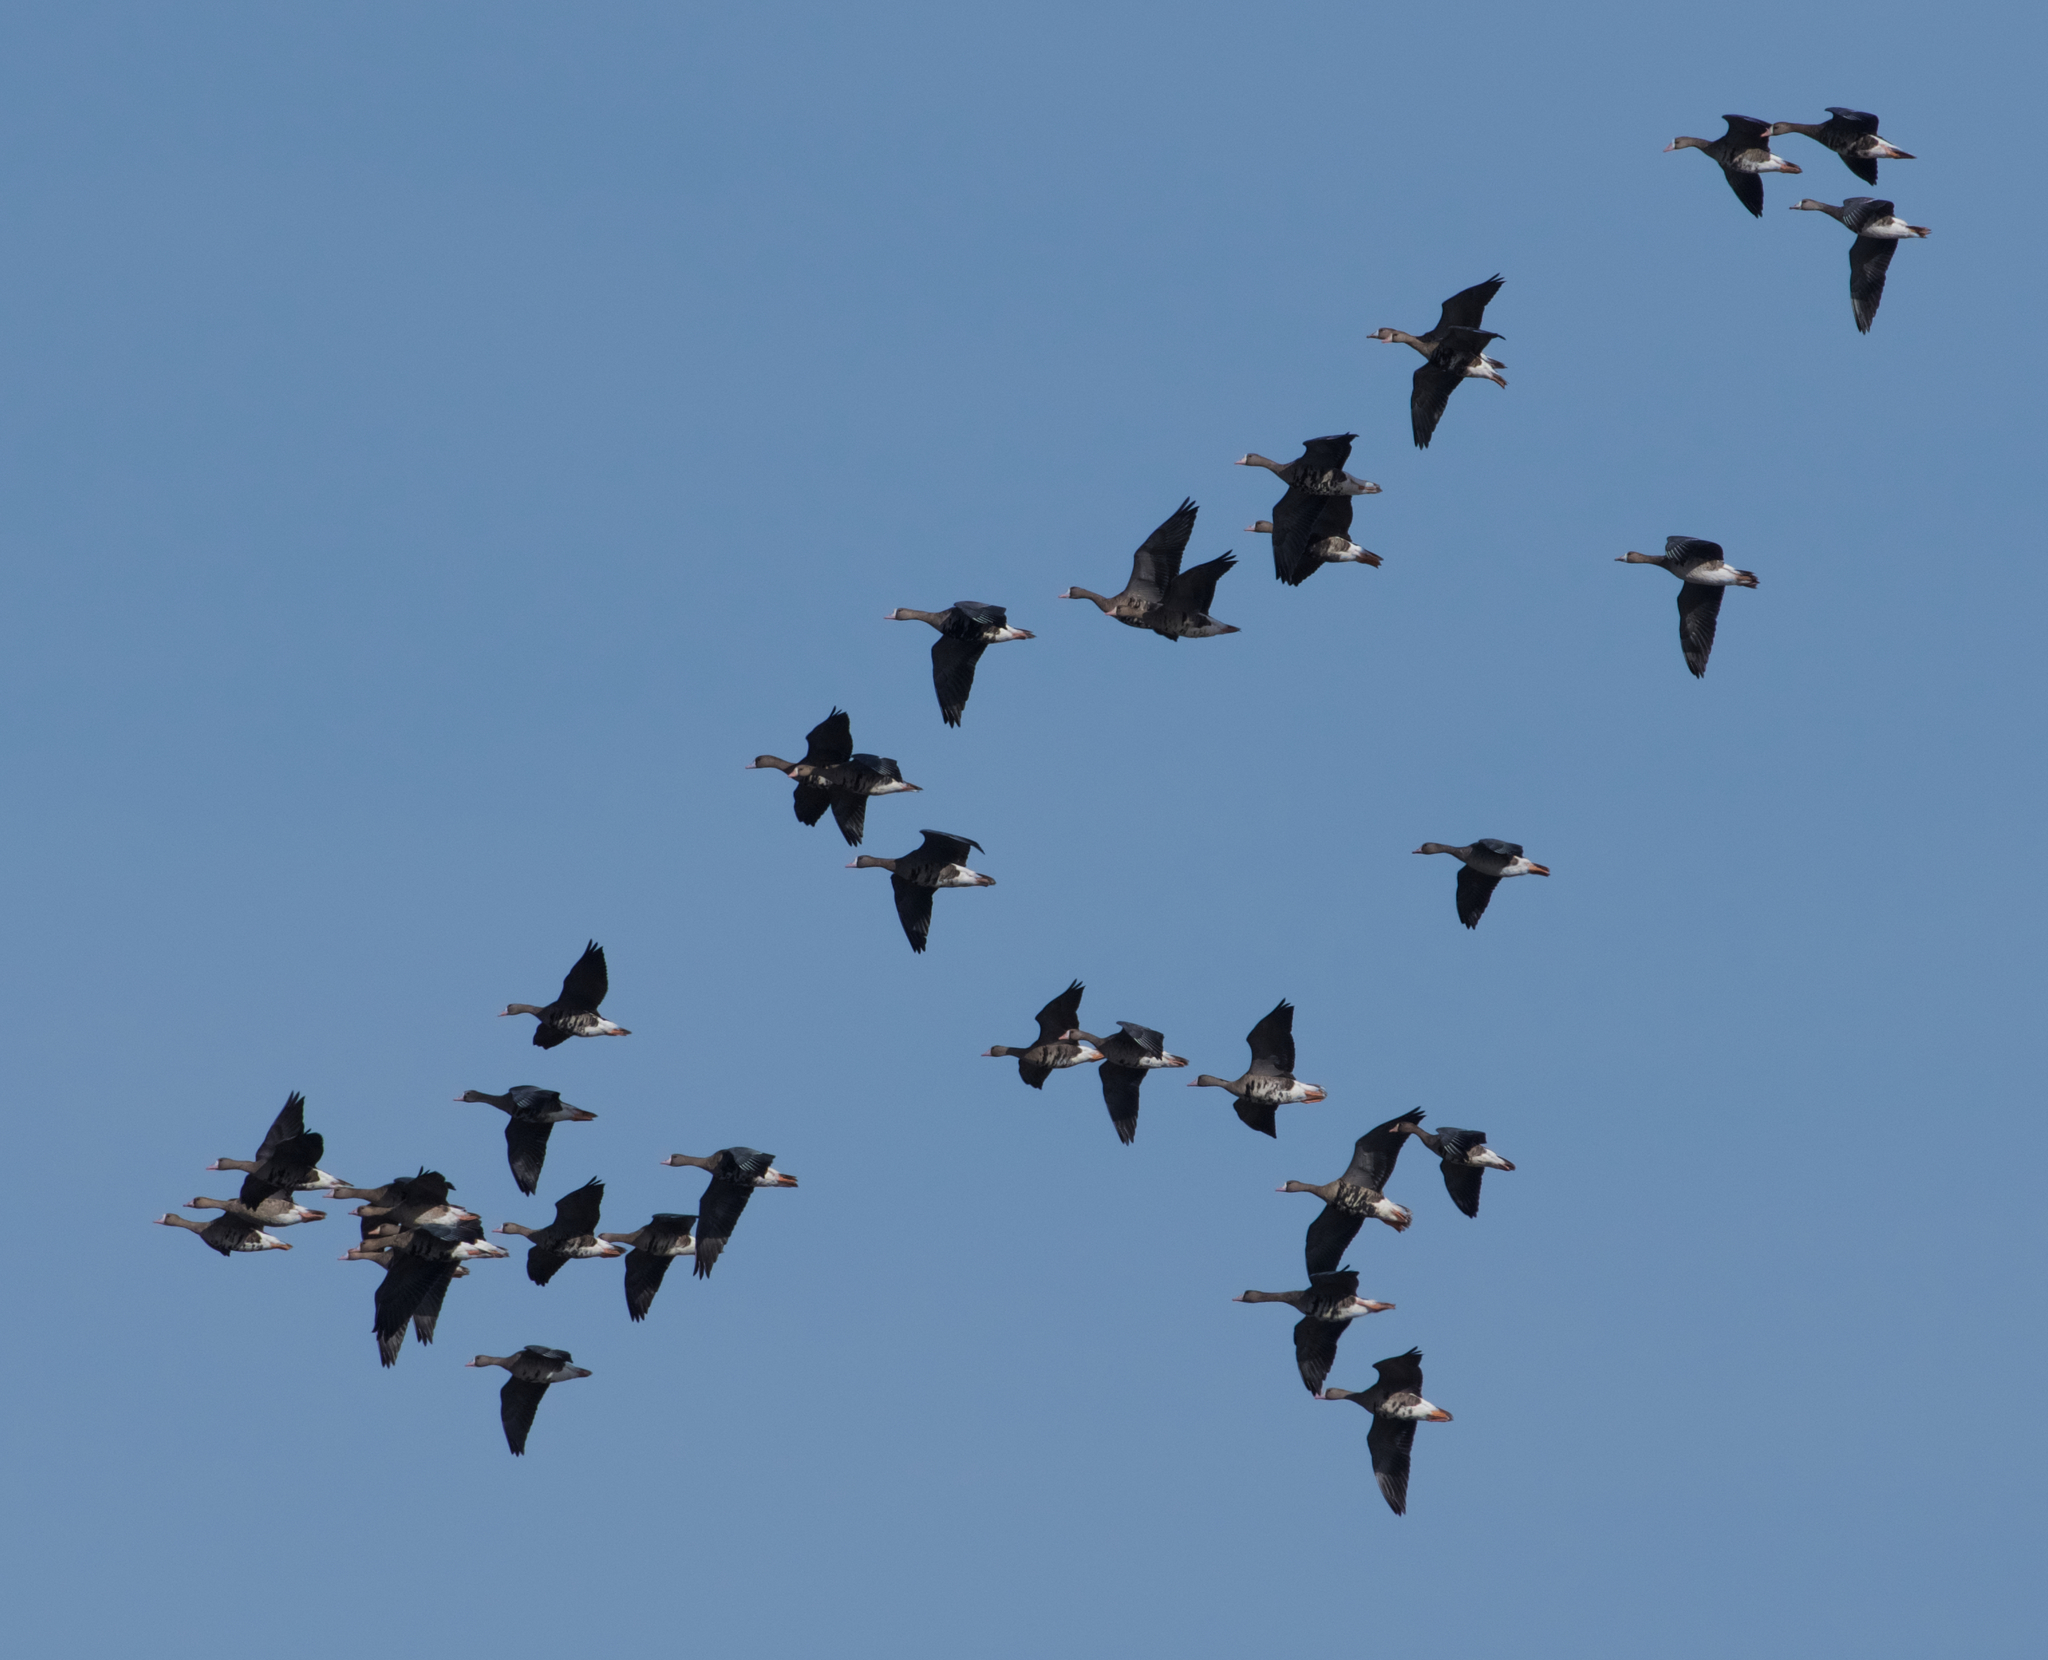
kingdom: Animalia
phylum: Chordata
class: Aves
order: Anseriformes
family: Anatidae
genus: Anser
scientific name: Anser albifrons
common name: Greater white-fronted goose
